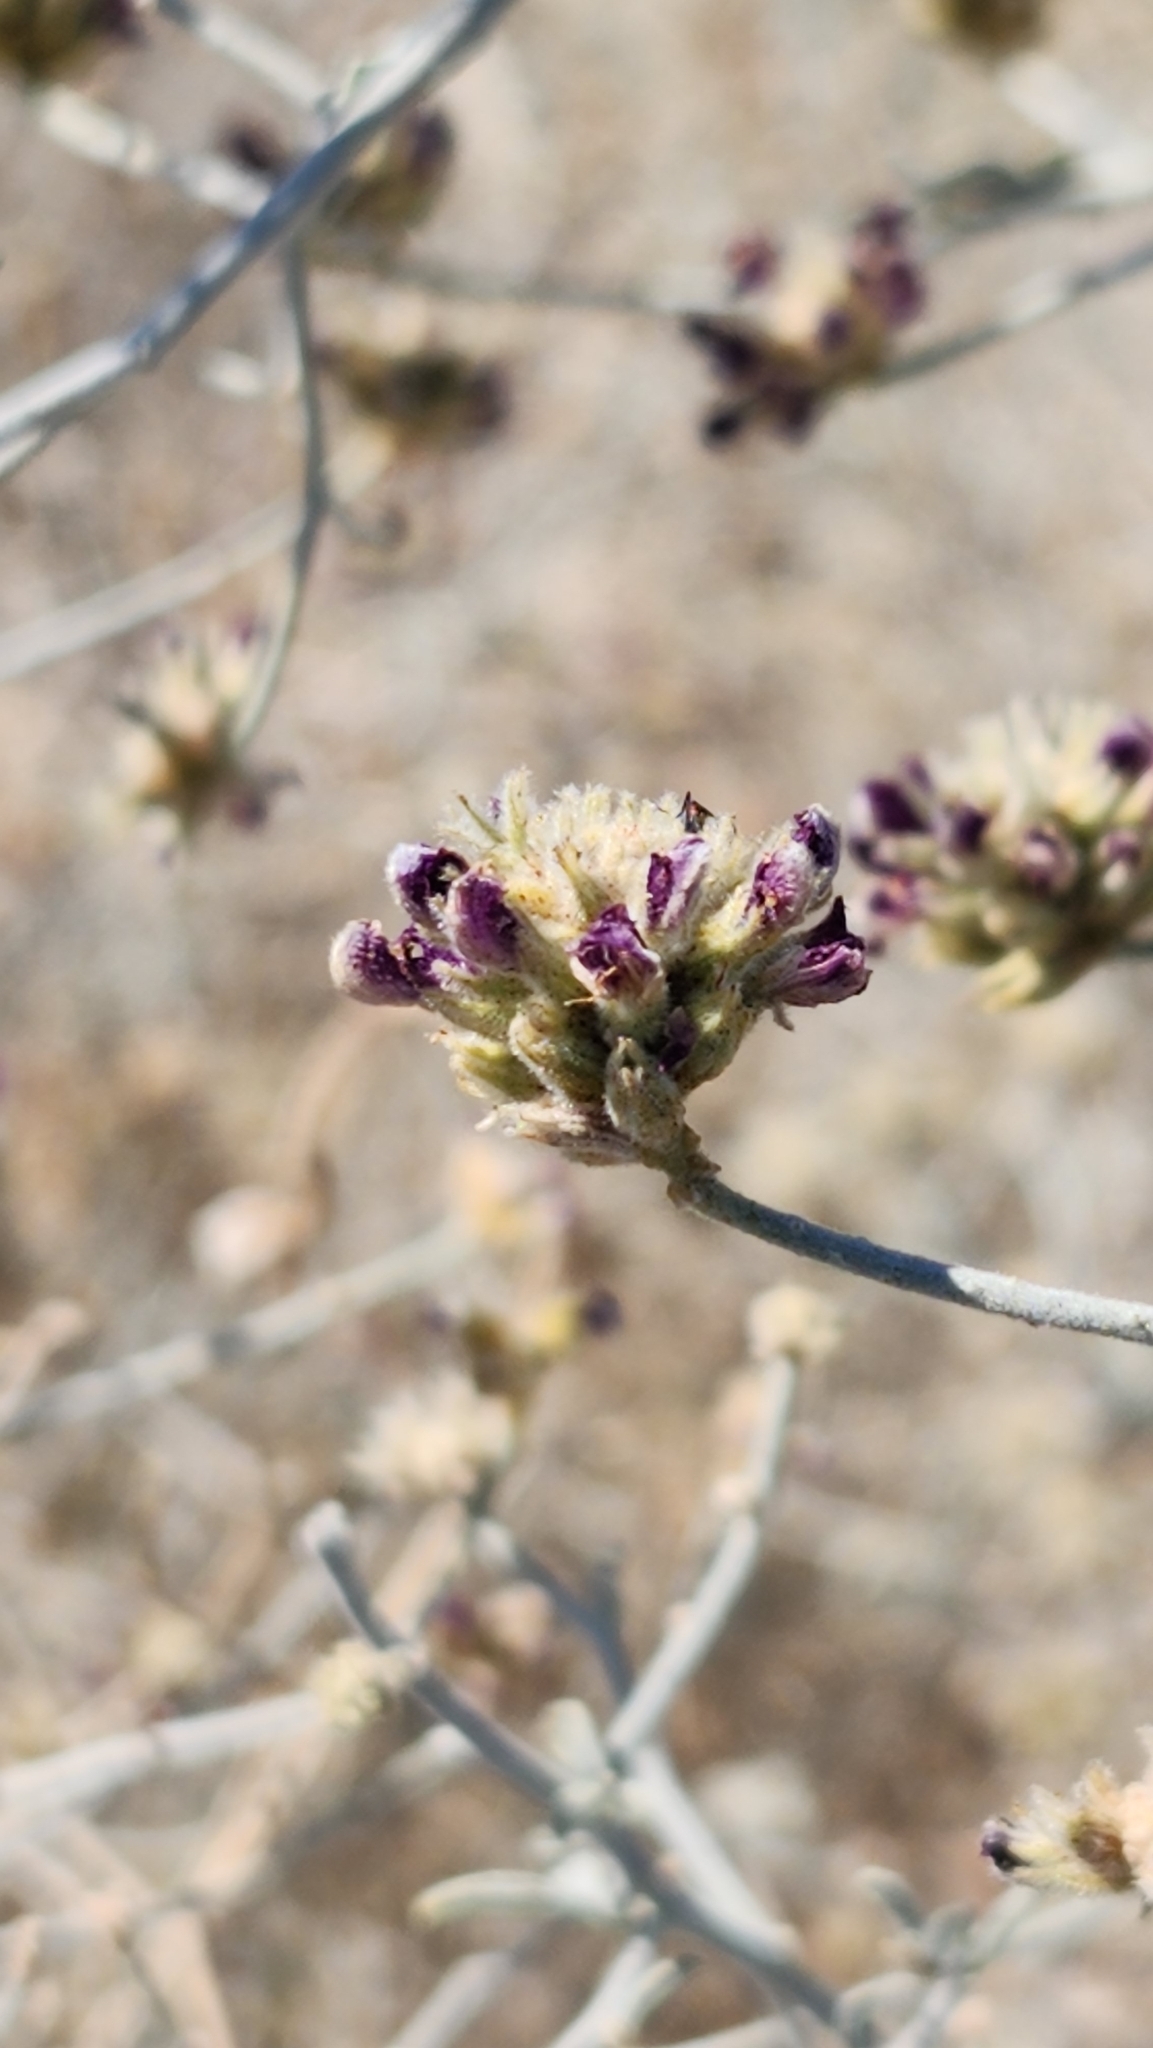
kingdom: Plantae
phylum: Tracheophyta
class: Magnoliopsida
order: Fabales
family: Fabaceae
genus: Psorothamnus
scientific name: Psorothamnus emoryi
